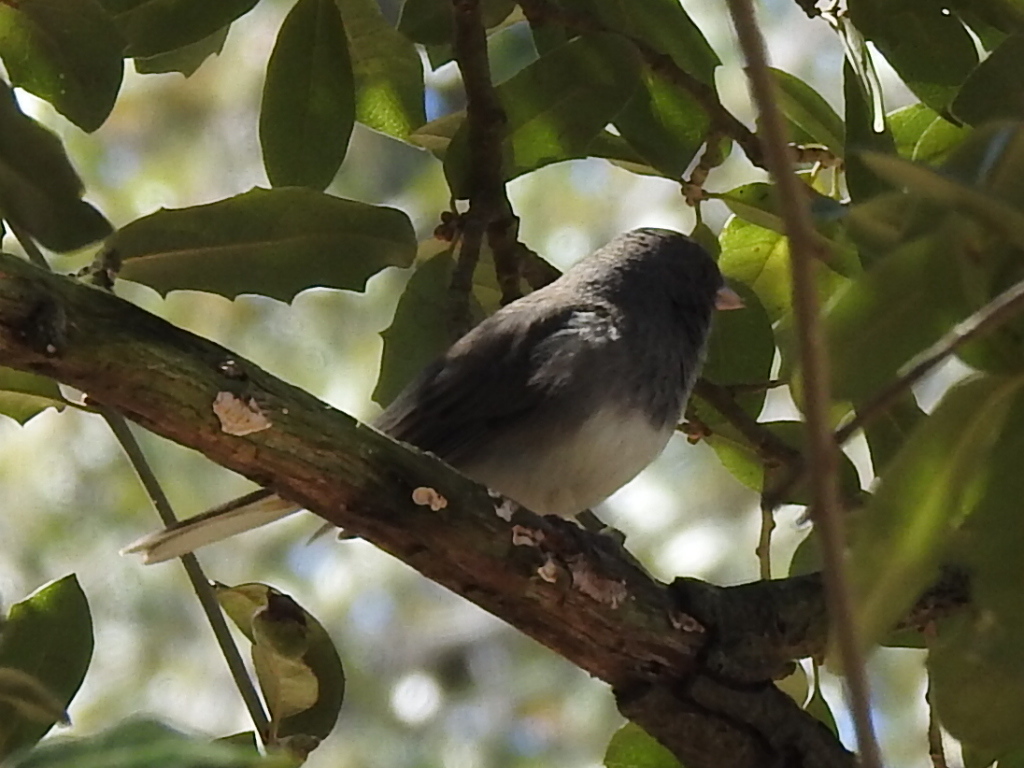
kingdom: Animalia
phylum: Chordata
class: Aves
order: Passeriformes
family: Passerellidae
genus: Junco
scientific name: Junco hyemalis
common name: Dark-eyed junco
